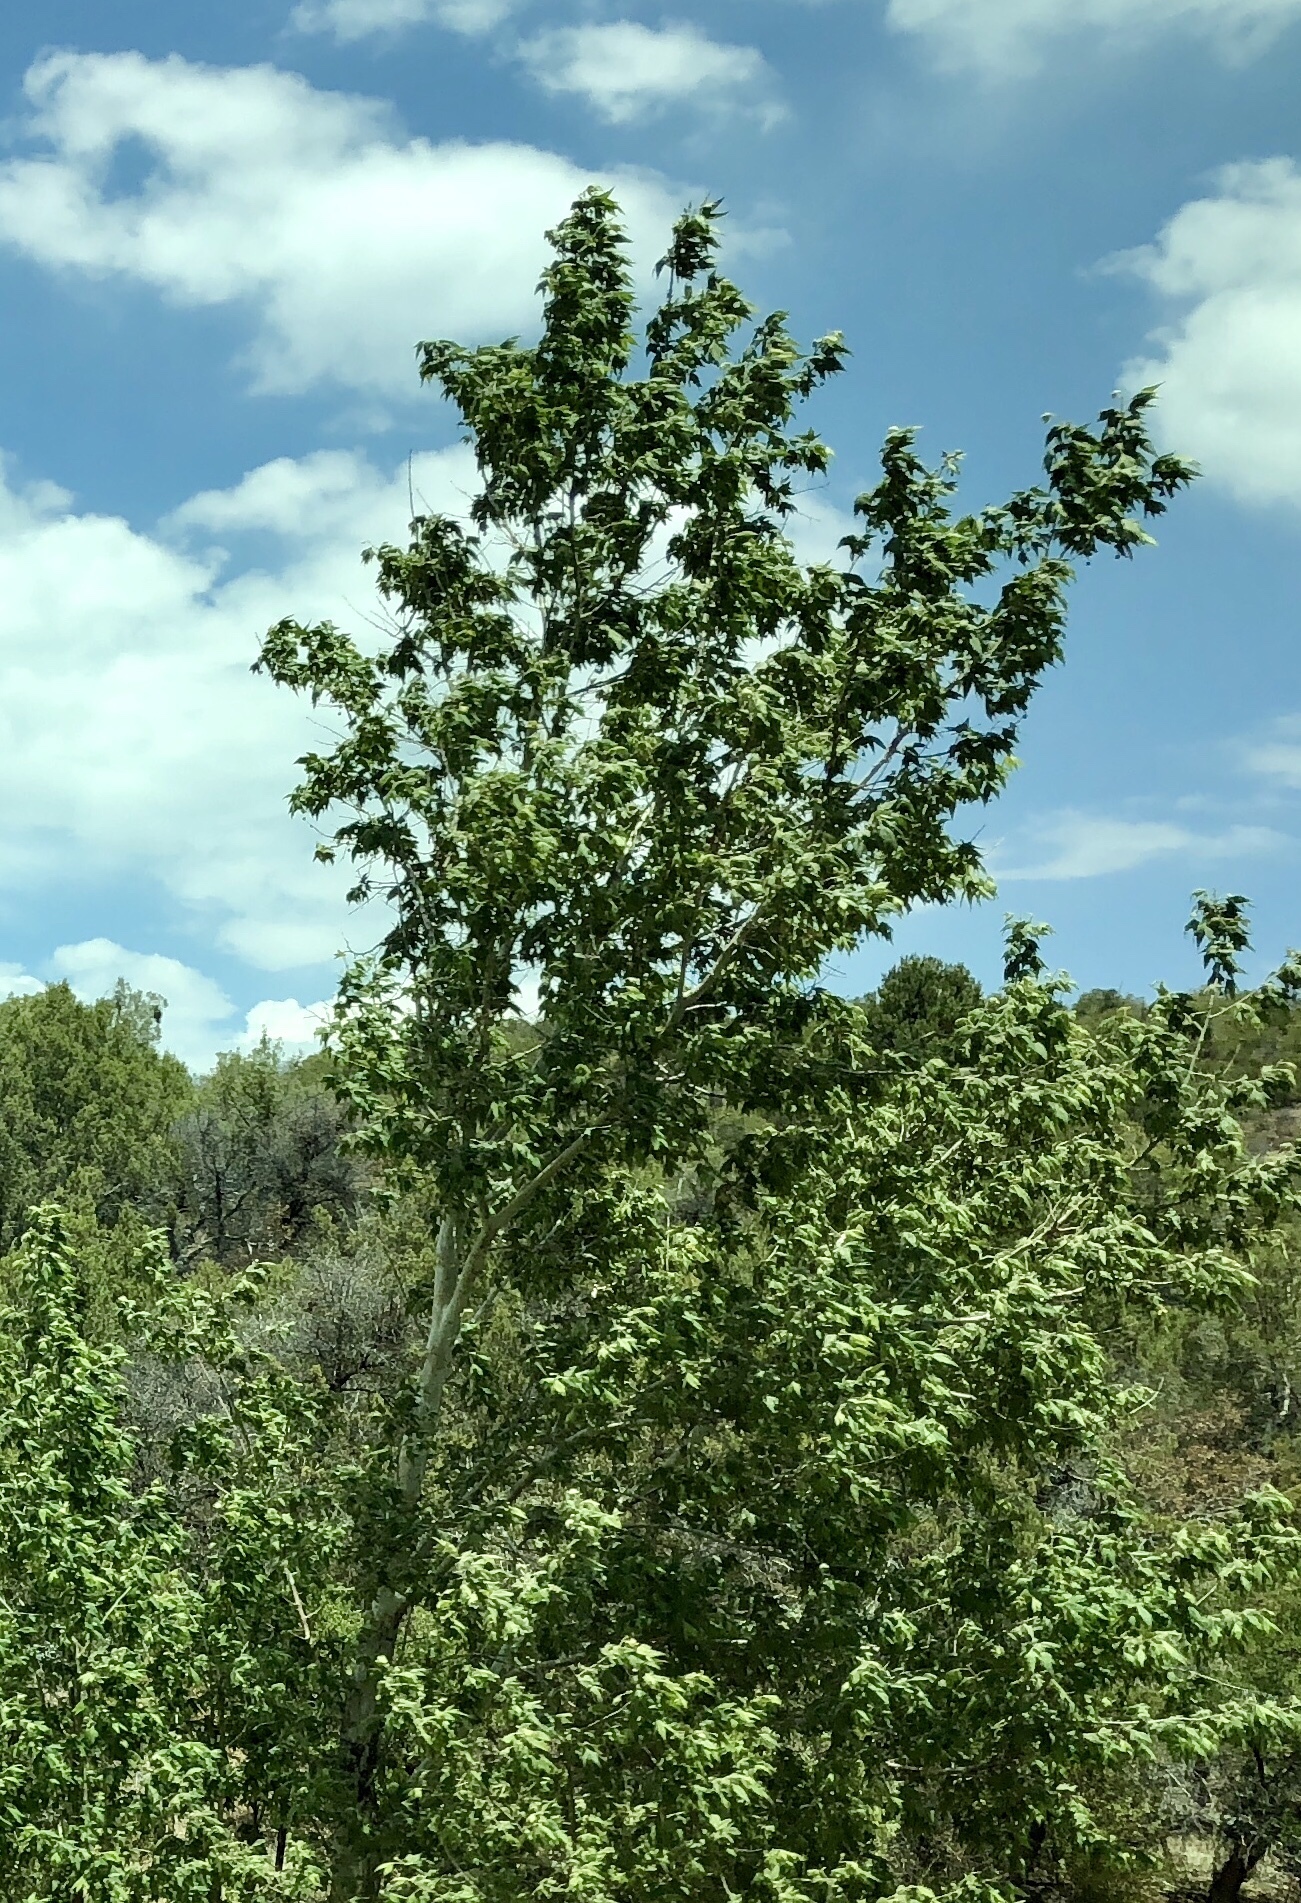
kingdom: Plantae
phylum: Tracheophyta
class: Magnoliopsida
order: Proteales
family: Platanaceae
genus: Platanus
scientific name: Platanus wrightii
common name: Arizona sycamore
